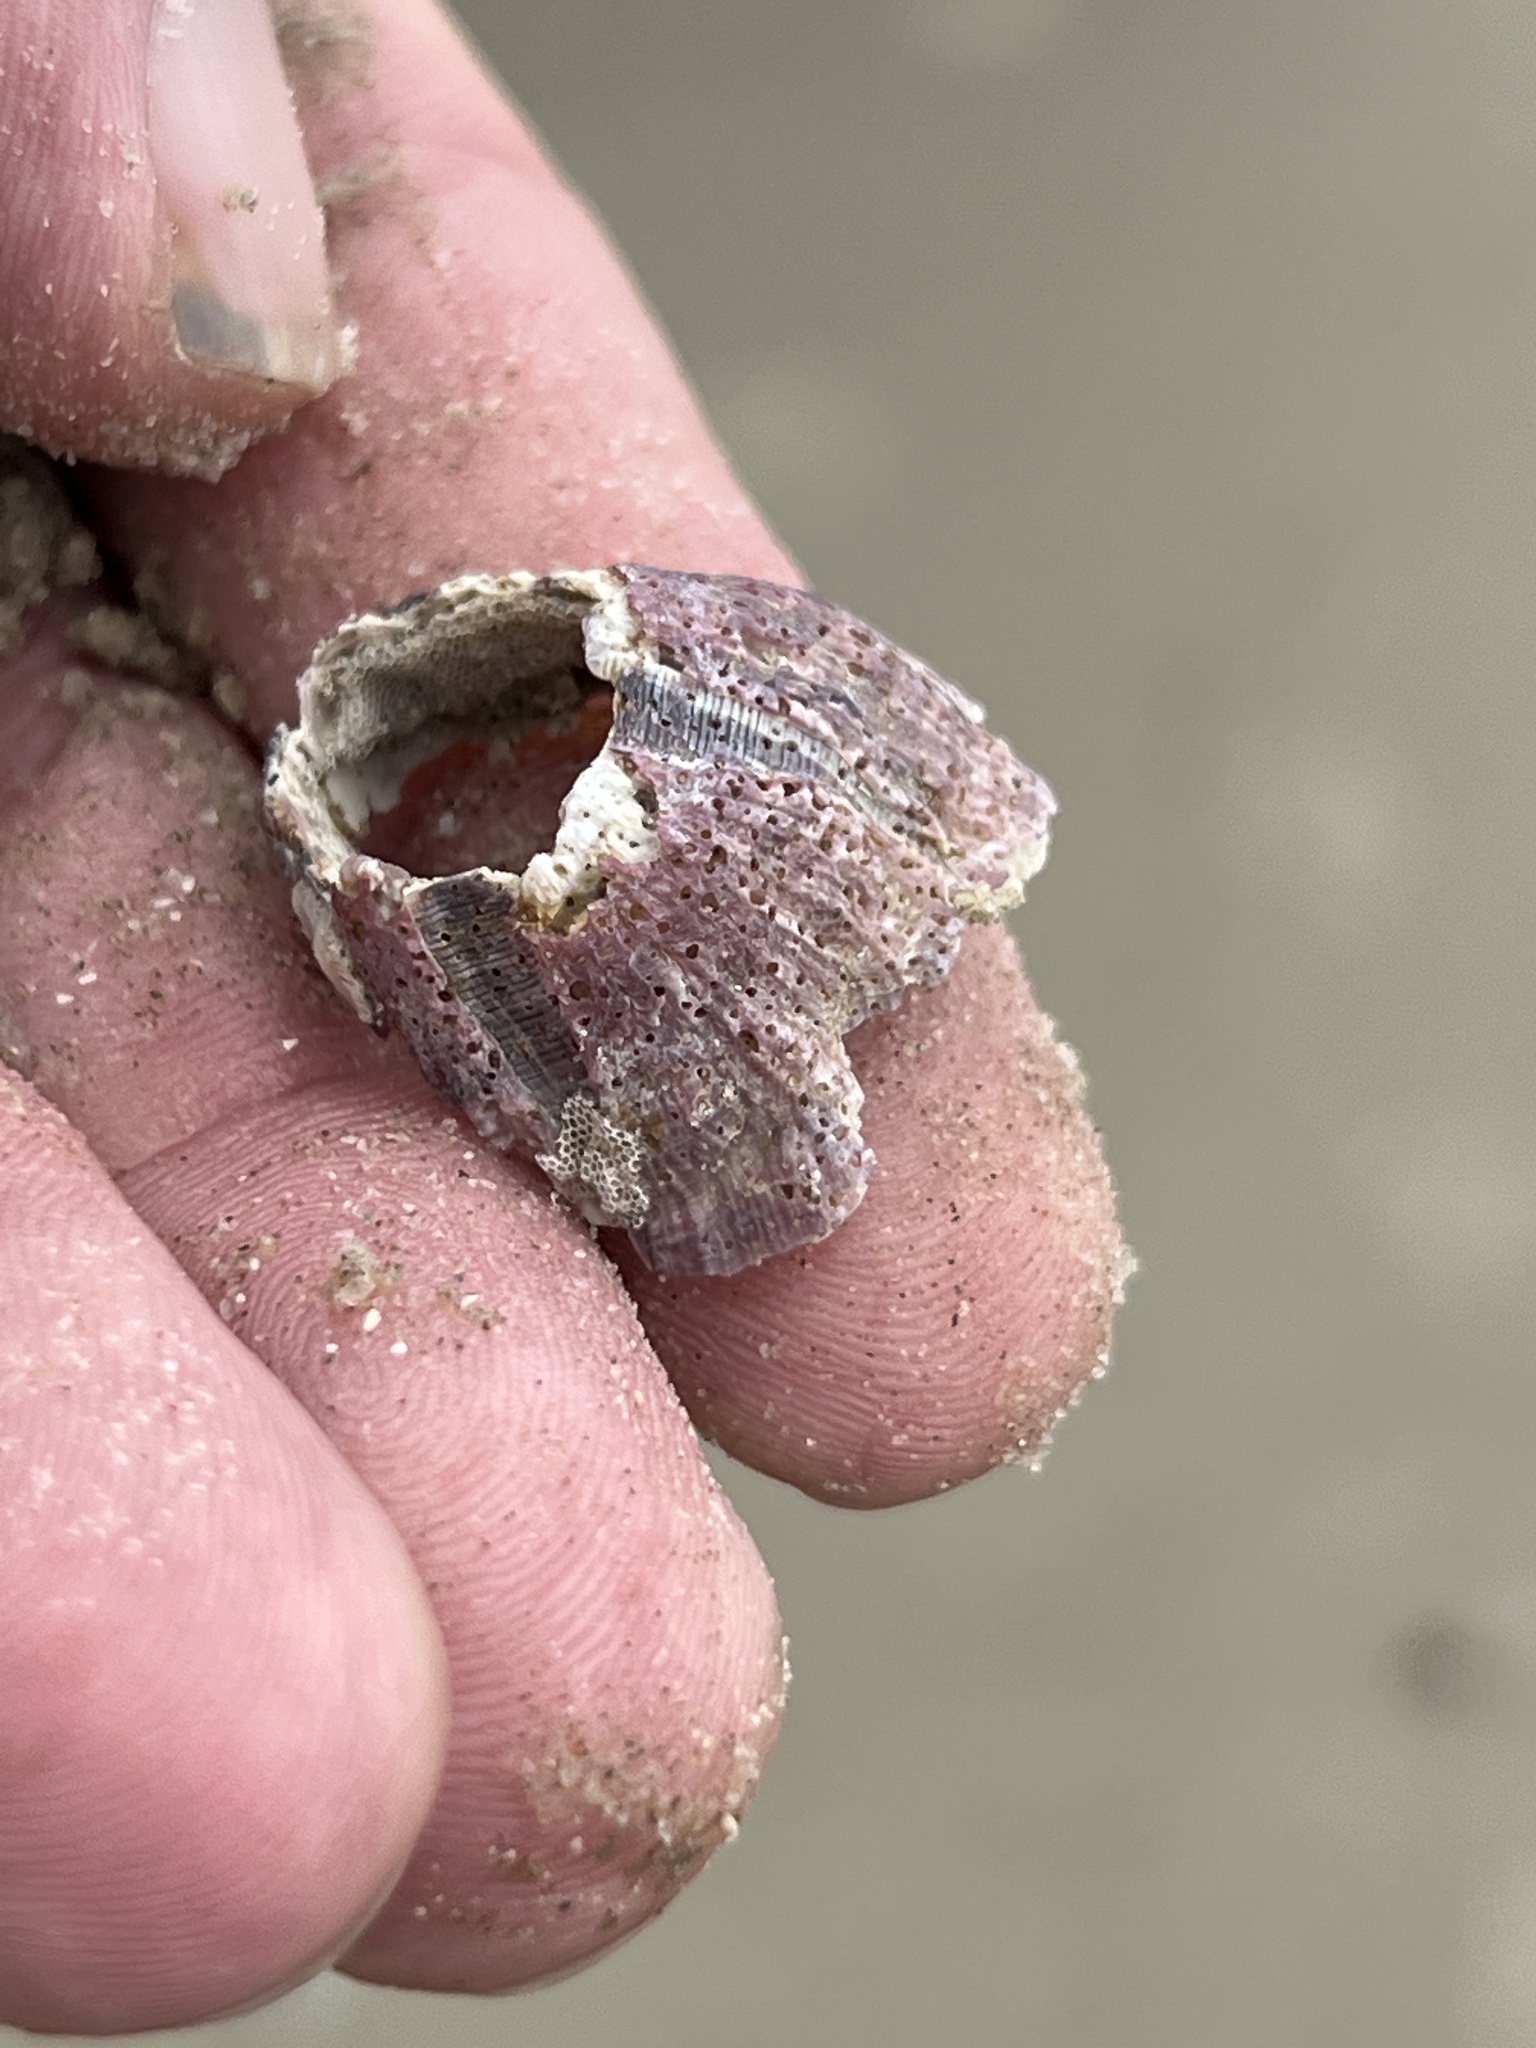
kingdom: Animalia
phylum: Arthropoda
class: Maxillopoda
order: Sessilia
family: Balanidae
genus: Megabalanus
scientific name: Megabalanus tintinnabulum
